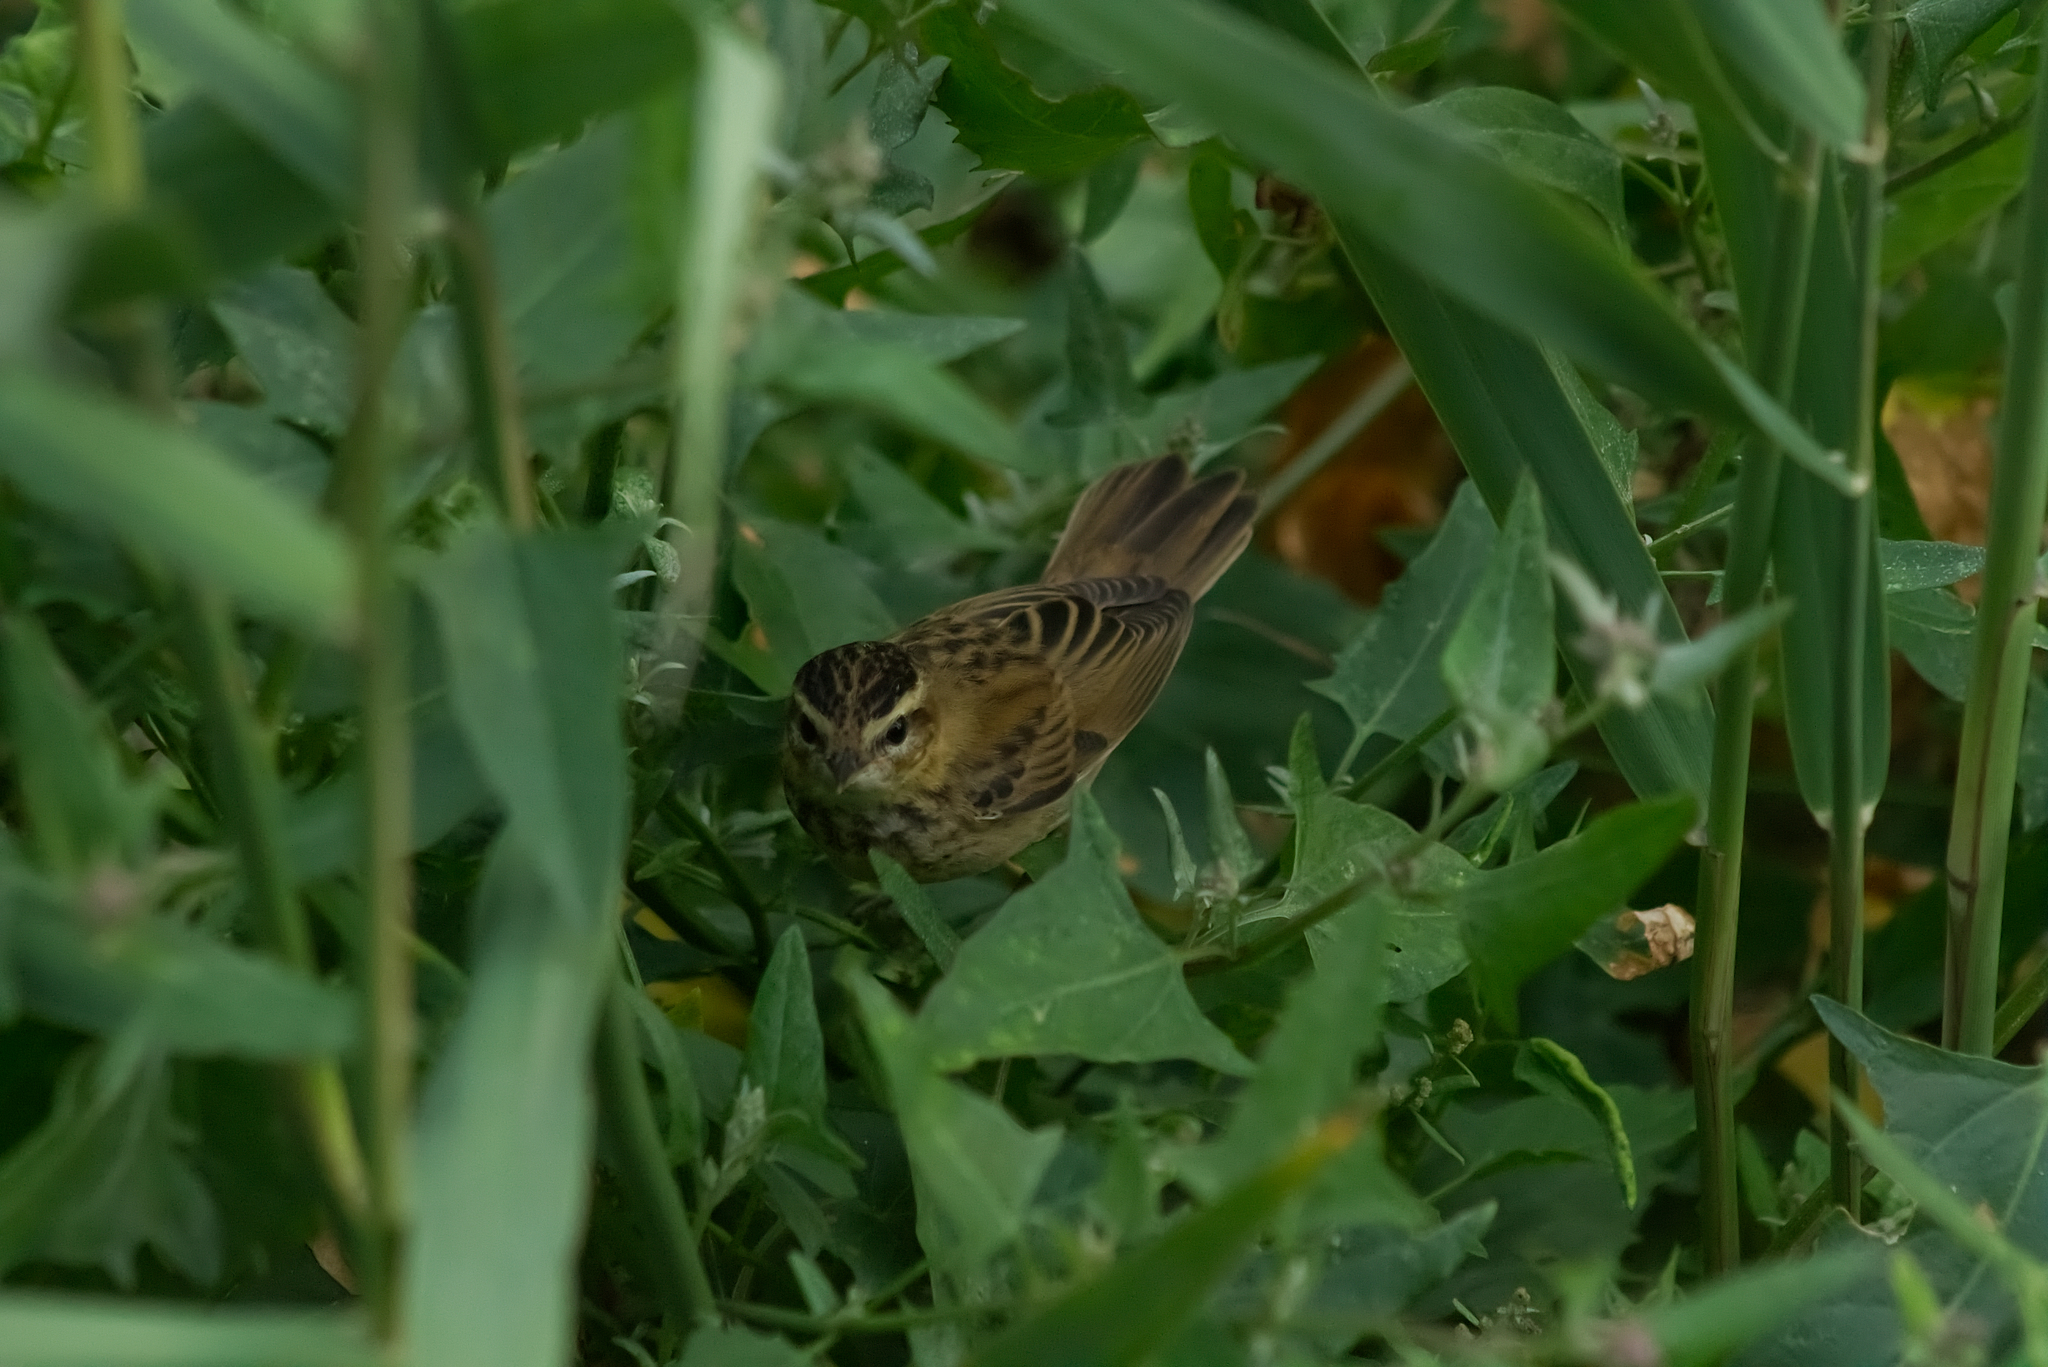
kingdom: Animalia
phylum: Chordata
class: Aves
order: Passeriformes
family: Acrocephalidae
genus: Acrocephalus
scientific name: Acrocephalus schoenobaenus
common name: Sedge warbler
